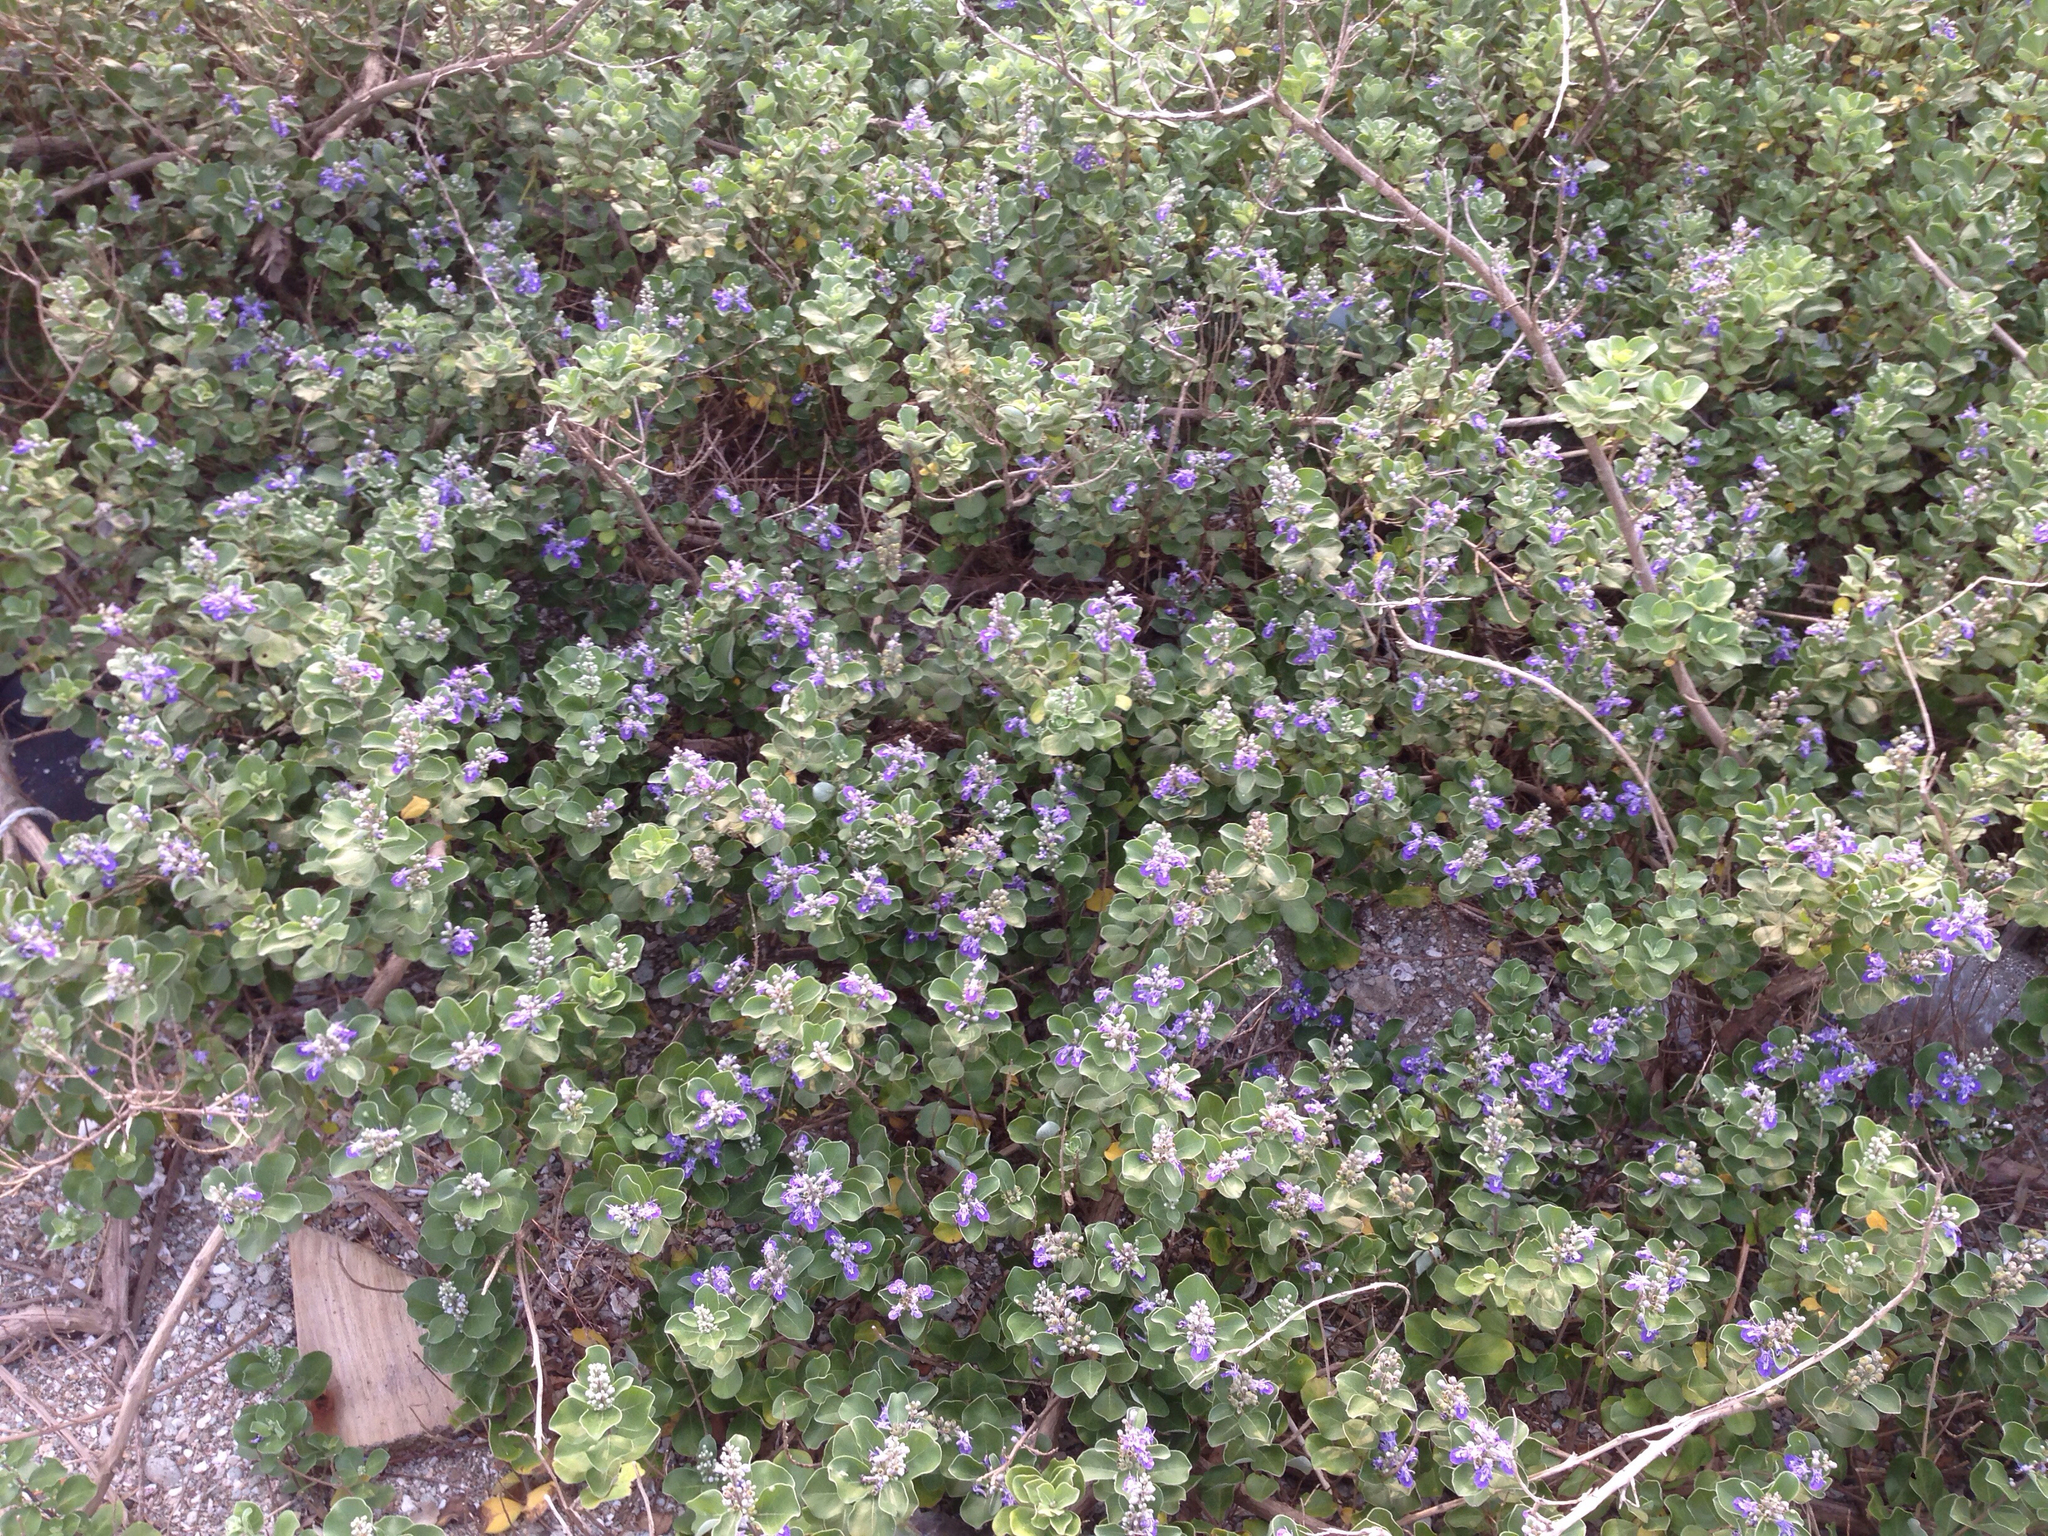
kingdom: Plantae
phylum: Tracheophyta
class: Magnoliopsida
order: Lamiales
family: Lamiaceae
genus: Vitex
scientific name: Vitex rotundifolia
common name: Beach vitex
